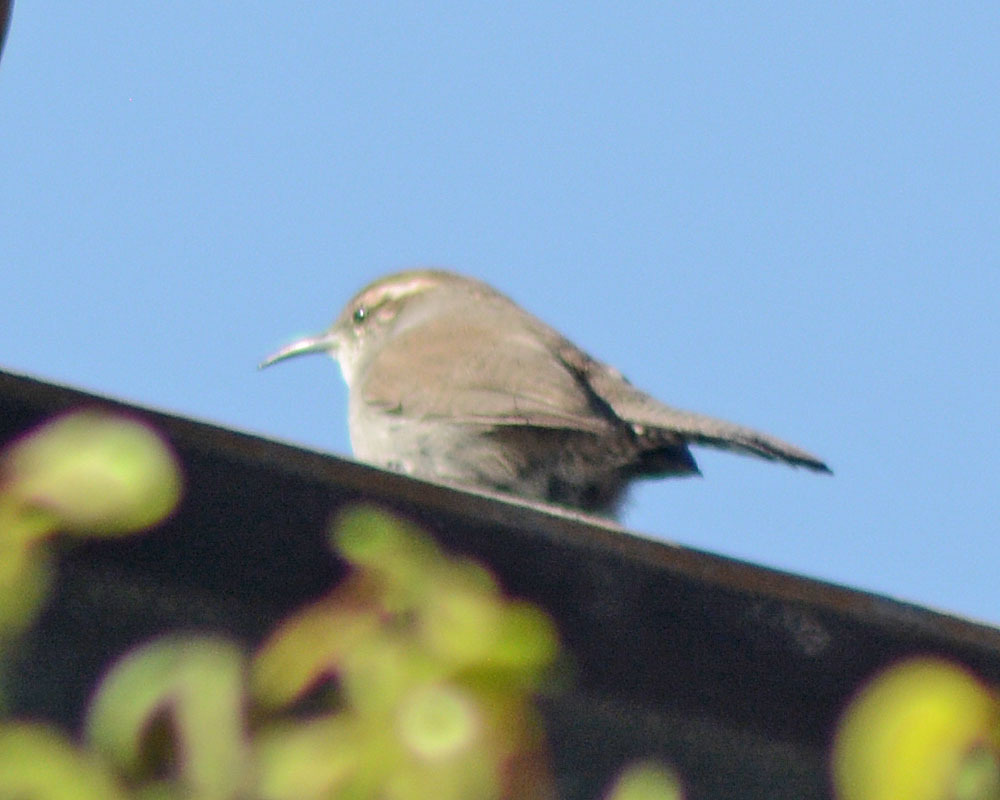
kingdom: Animalia
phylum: Chordata
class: Aves
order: Passeriformes
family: Troglodytidae
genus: Thryomanes
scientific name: Thryomanes bewickii
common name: Bewick's wren
